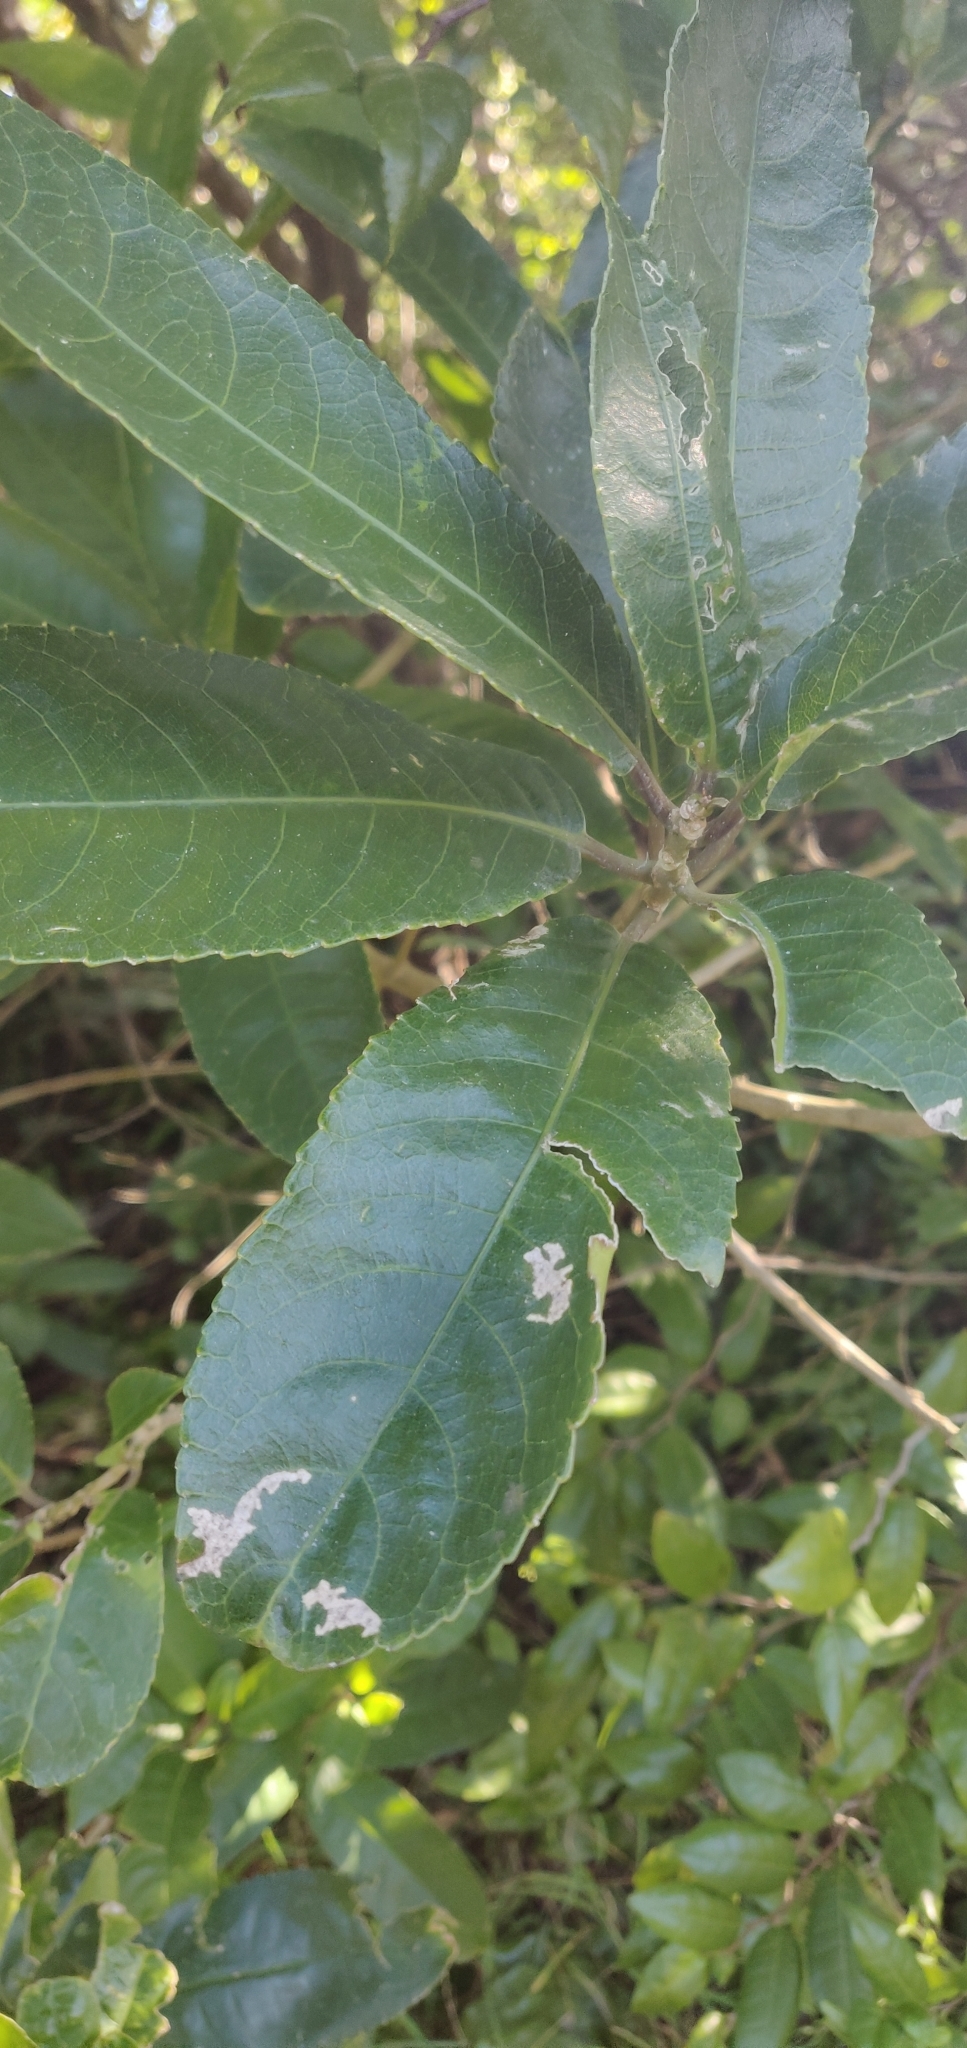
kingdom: Plantae
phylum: Tracheophyta
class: Magnoliopsida
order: Malpighiales
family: Violaceae
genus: Melicytus
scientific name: Melicytus ramiflorus
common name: Mahoe
